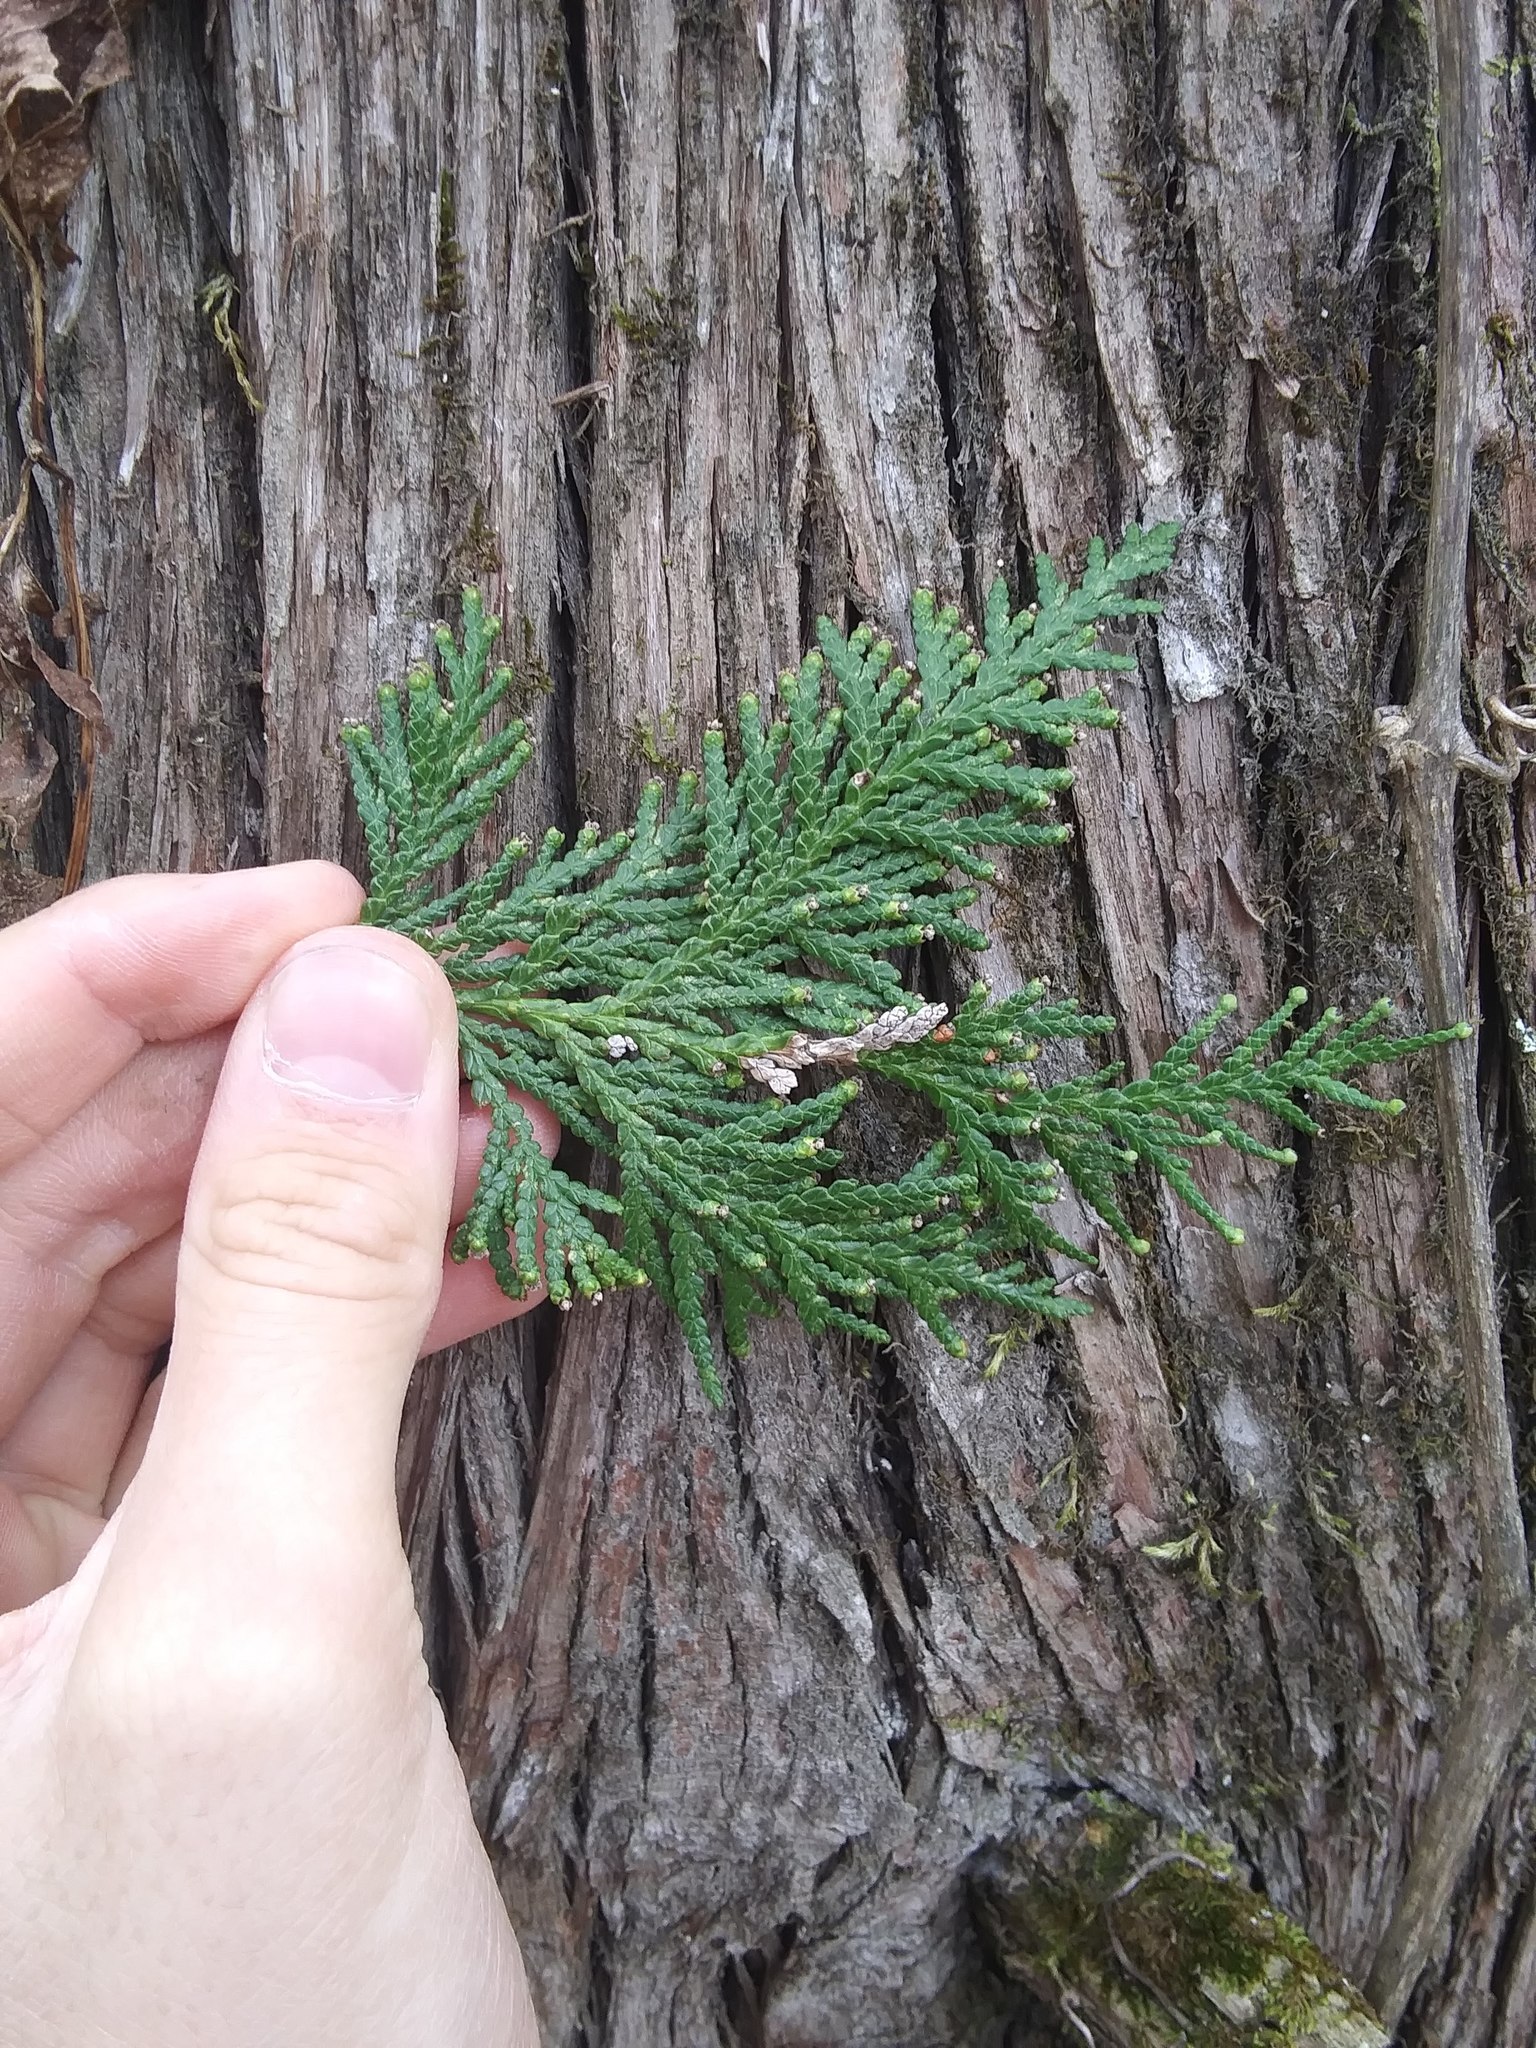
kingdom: Plantae
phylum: Tracheophyta
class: Pinopsida
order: Pinales
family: Cupressaceae
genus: Thuja
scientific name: Thuja occidentalis
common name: Northern white-cedar
